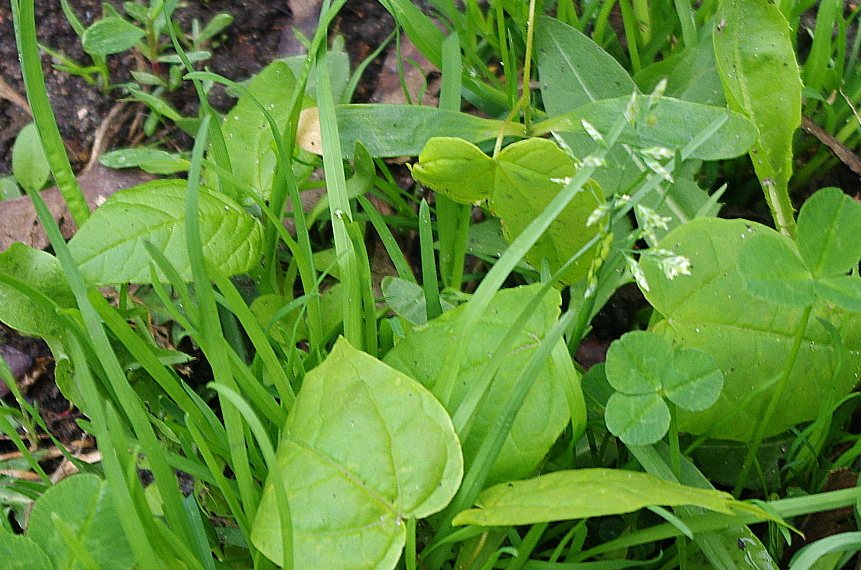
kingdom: Plantae
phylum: Tracheophyta
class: Liliopsida
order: Poales
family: Poaceae
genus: Poa
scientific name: Poa annua
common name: Annual bluegrass
